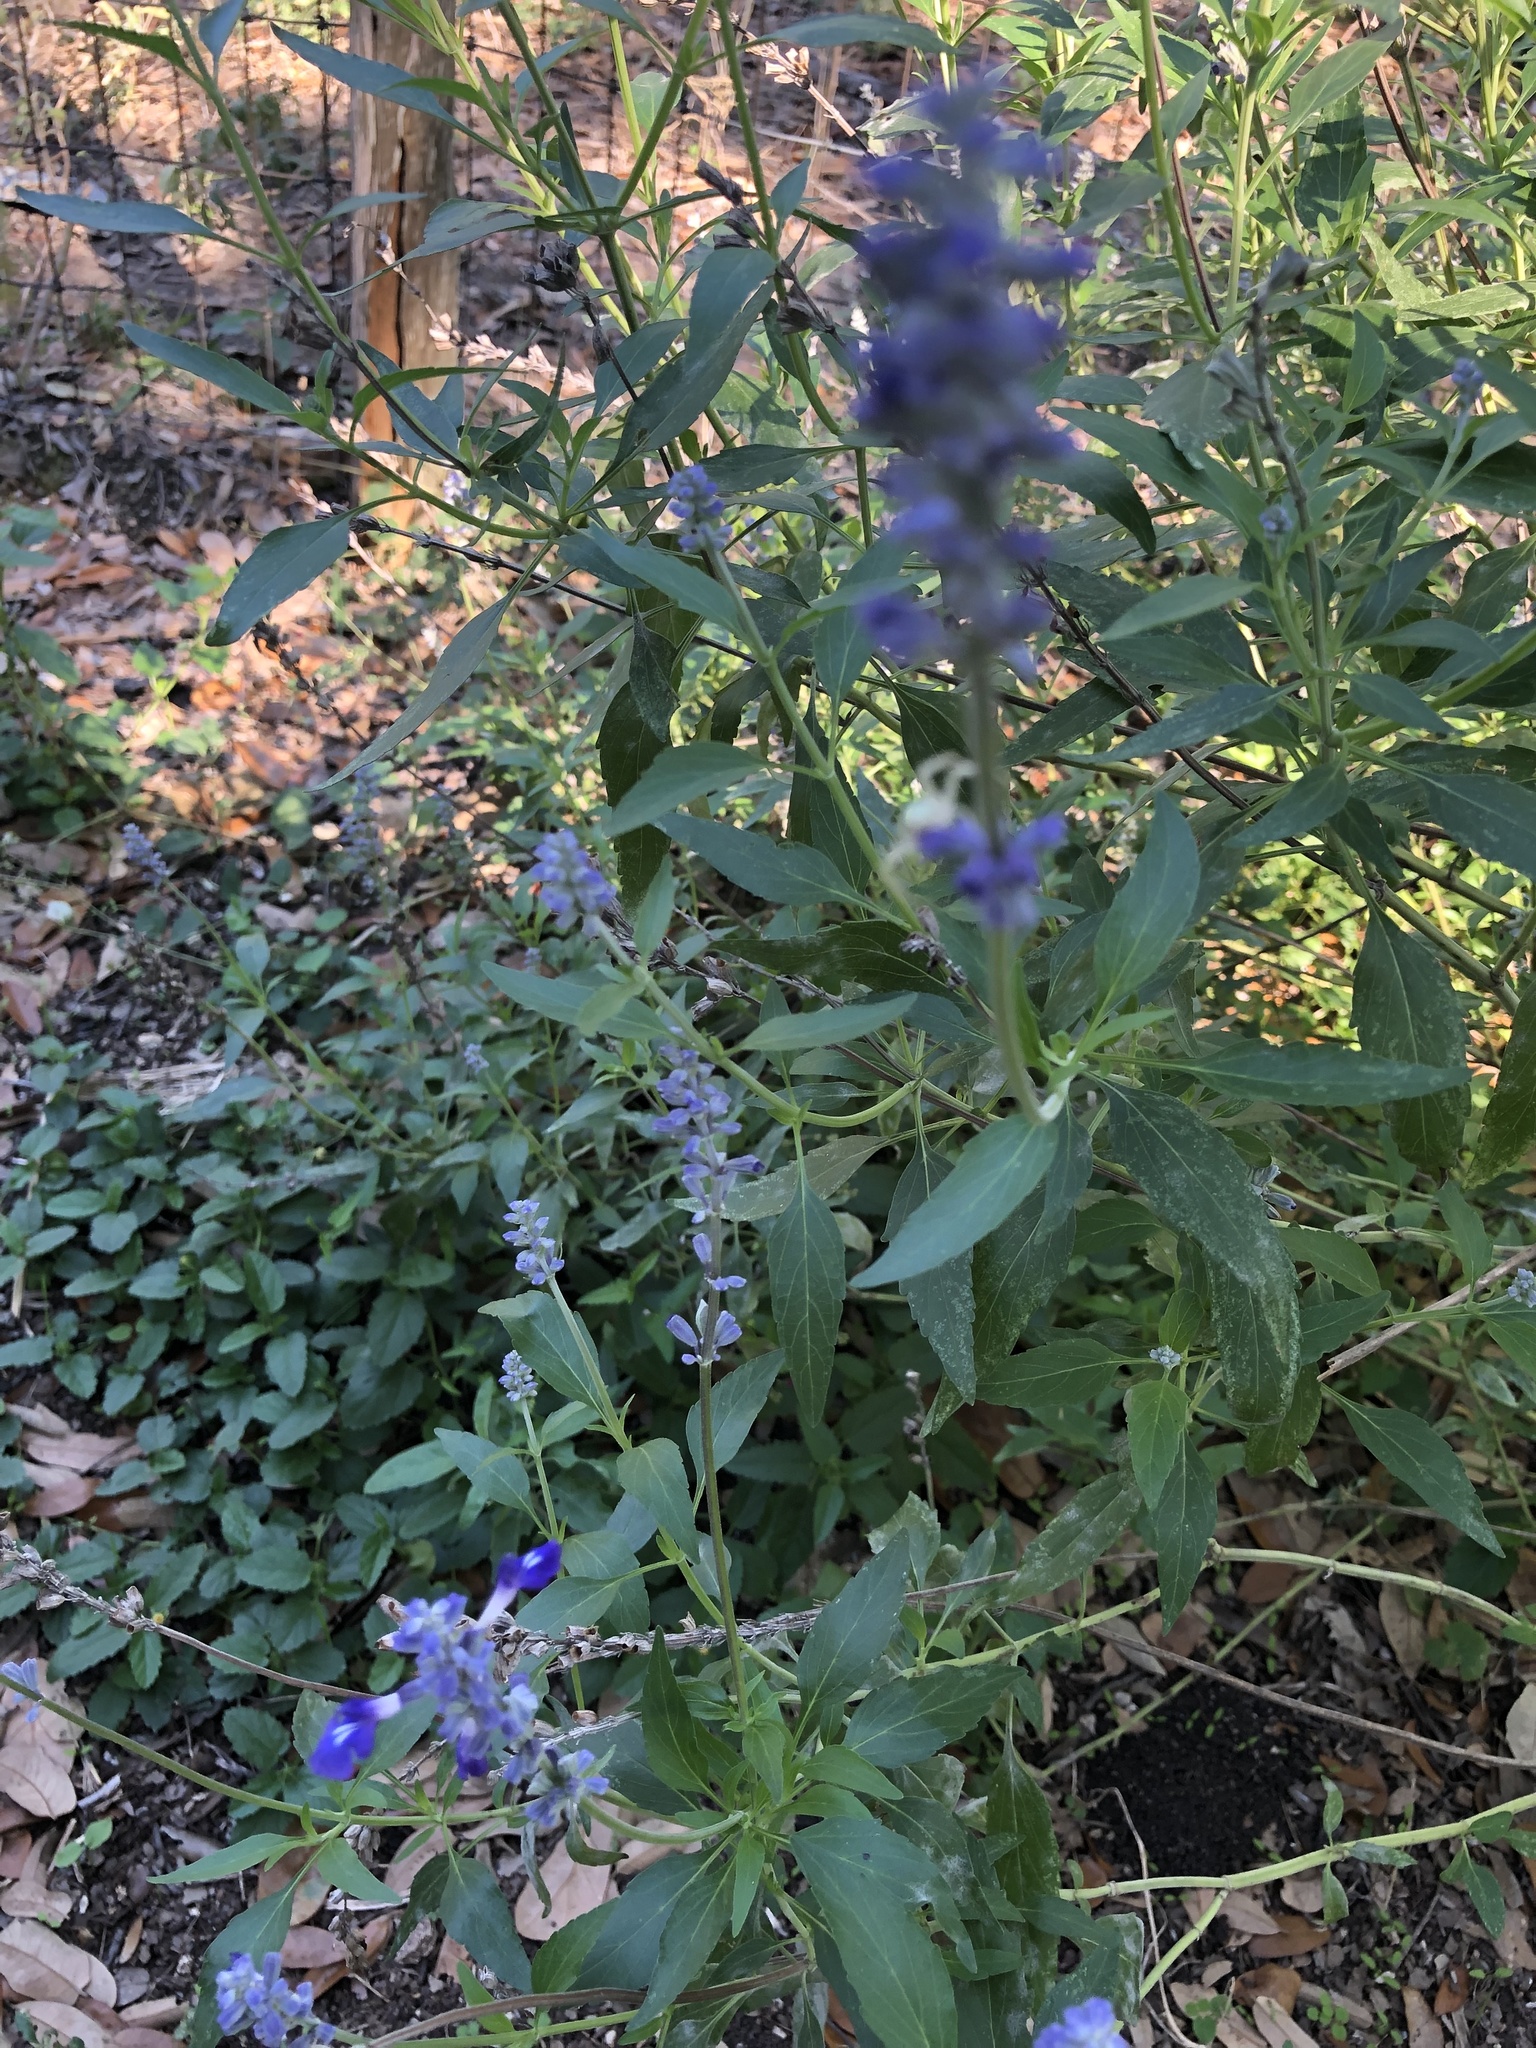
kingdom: Plantae
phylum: Tracheophyta
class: Magnoliopsida
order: Lamiales
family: Lamiaceae
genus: Salvia
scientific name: Salvia farinacea
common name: Mealy sage
